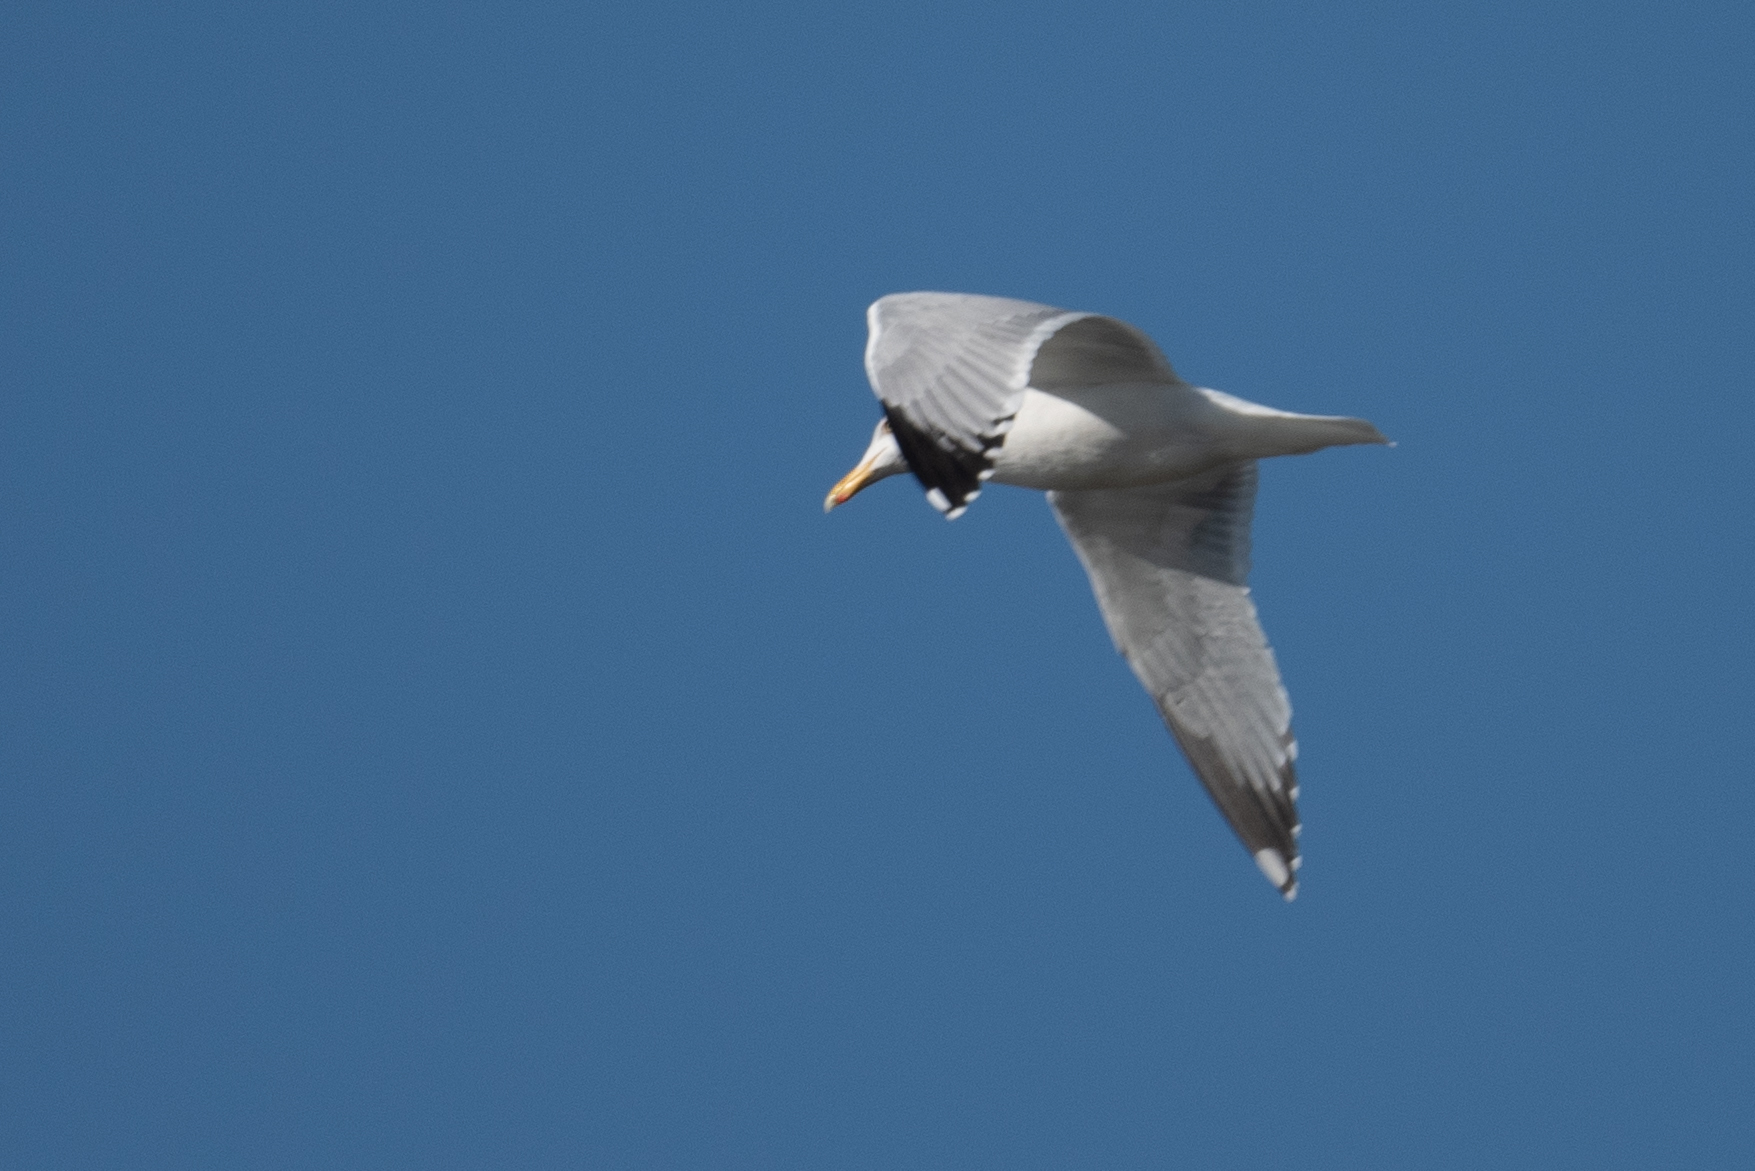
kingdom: Animalia
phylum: Chordata
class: Aves
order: Charadriiformes
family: Laridae
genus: Larus
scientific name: Larus californicus
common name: California gull
